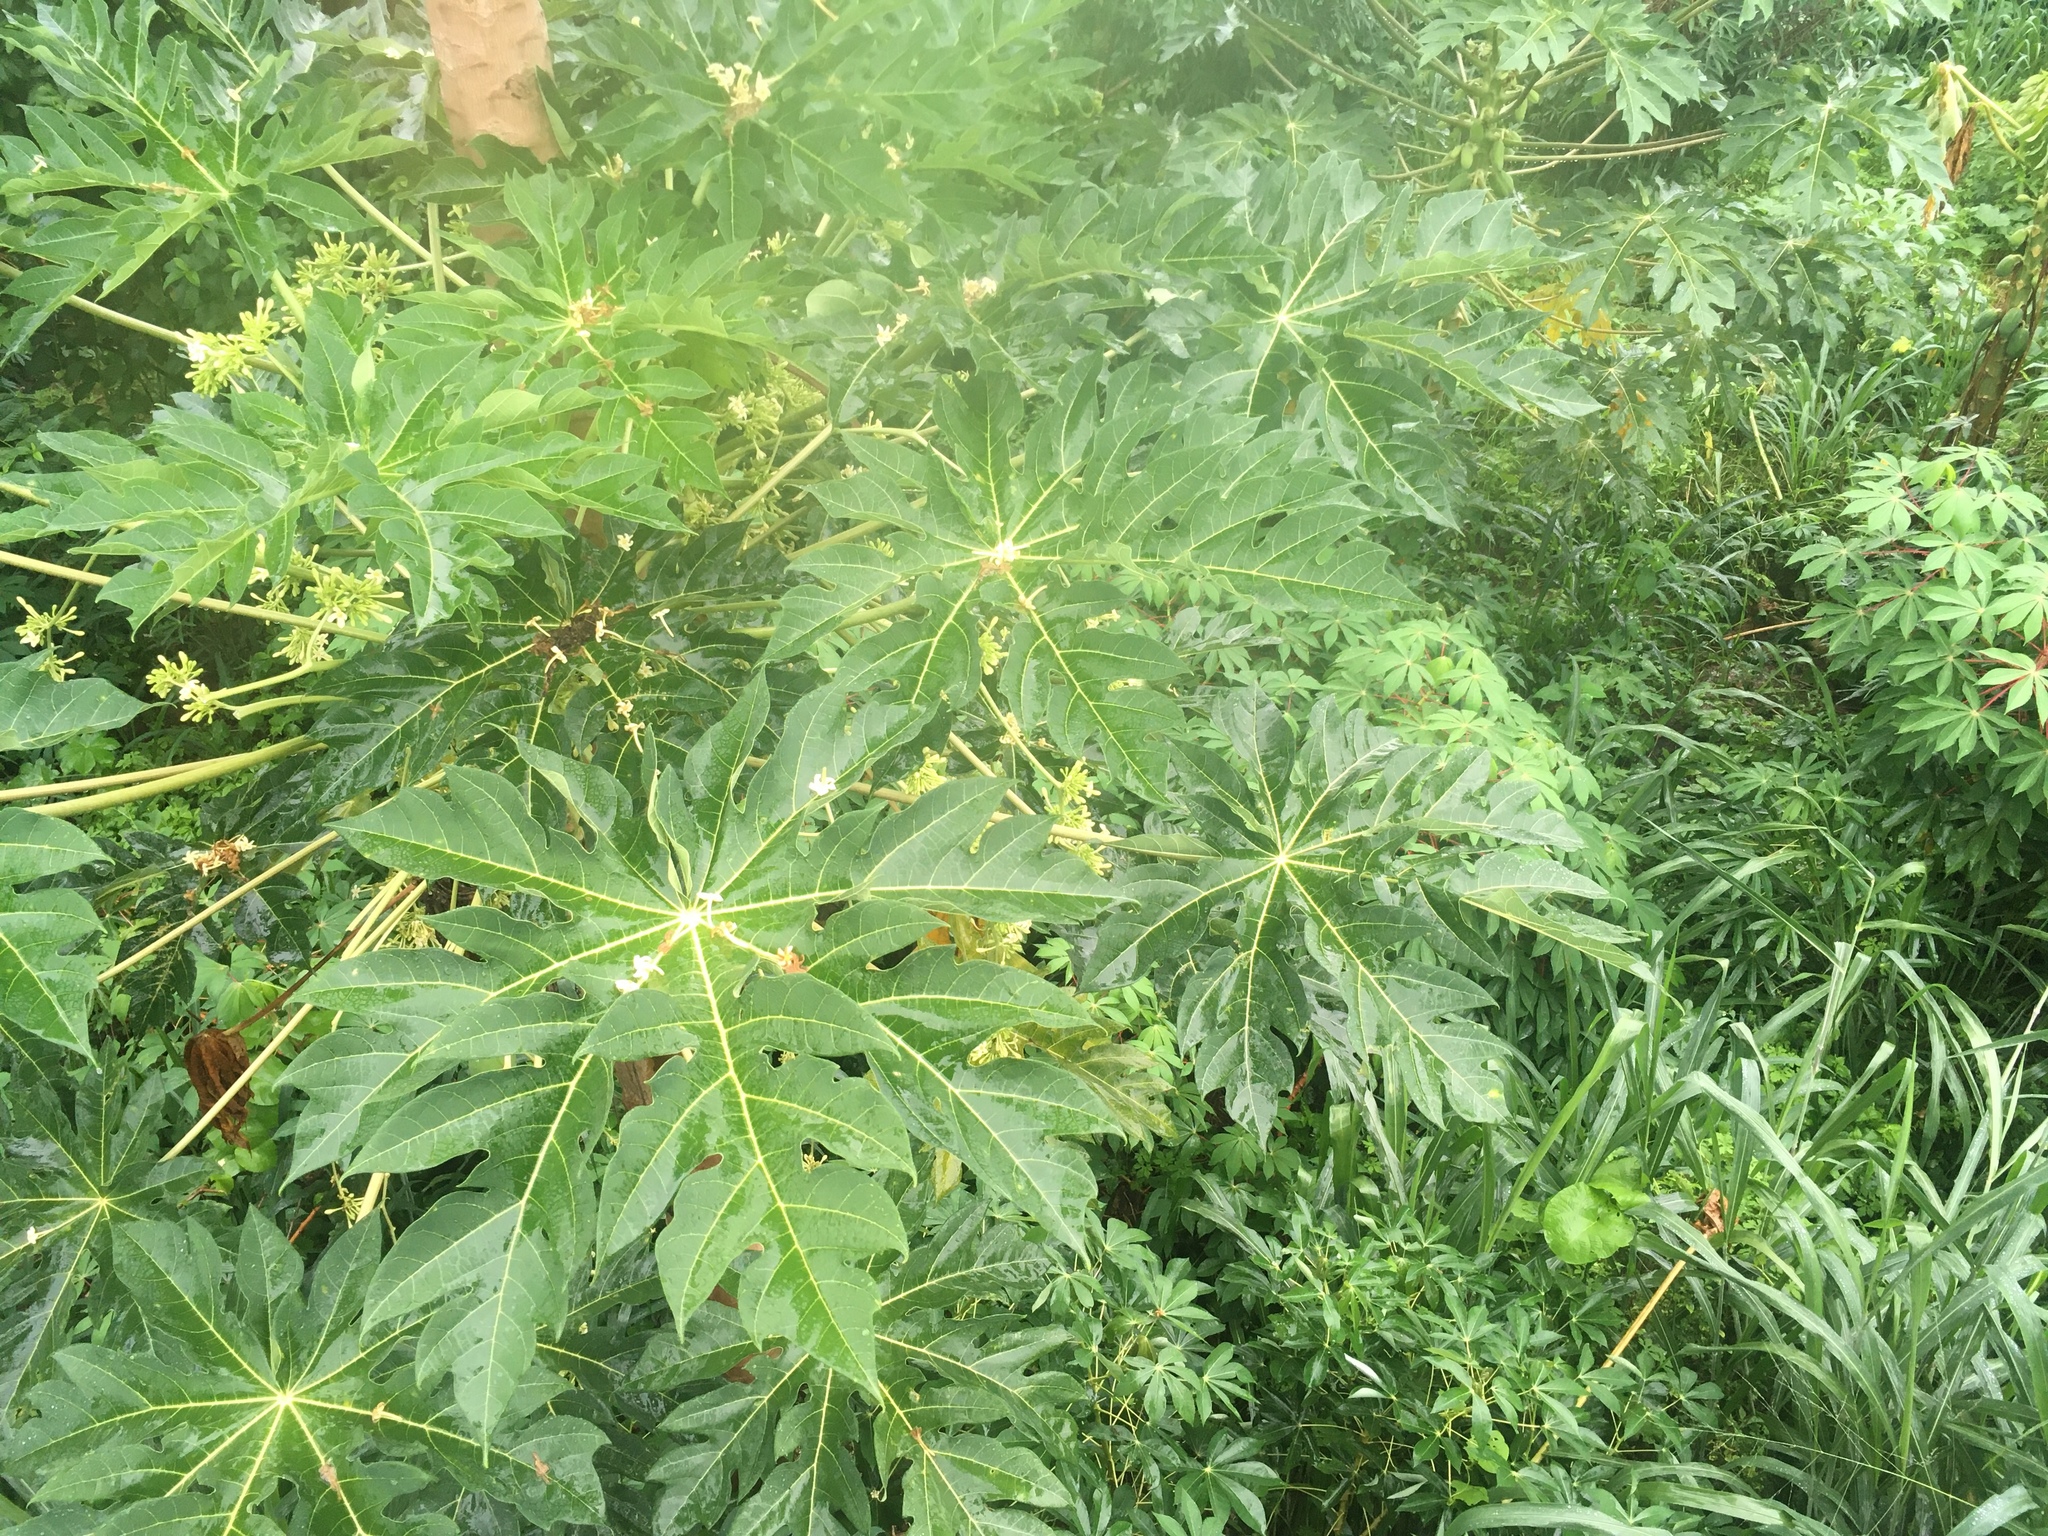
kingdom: Plantae
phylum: Tracheophyta
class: Magnoliopsida
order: Brassicales
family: Caricaceae
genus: Carica
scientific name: Carica papaya
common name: Papaya
